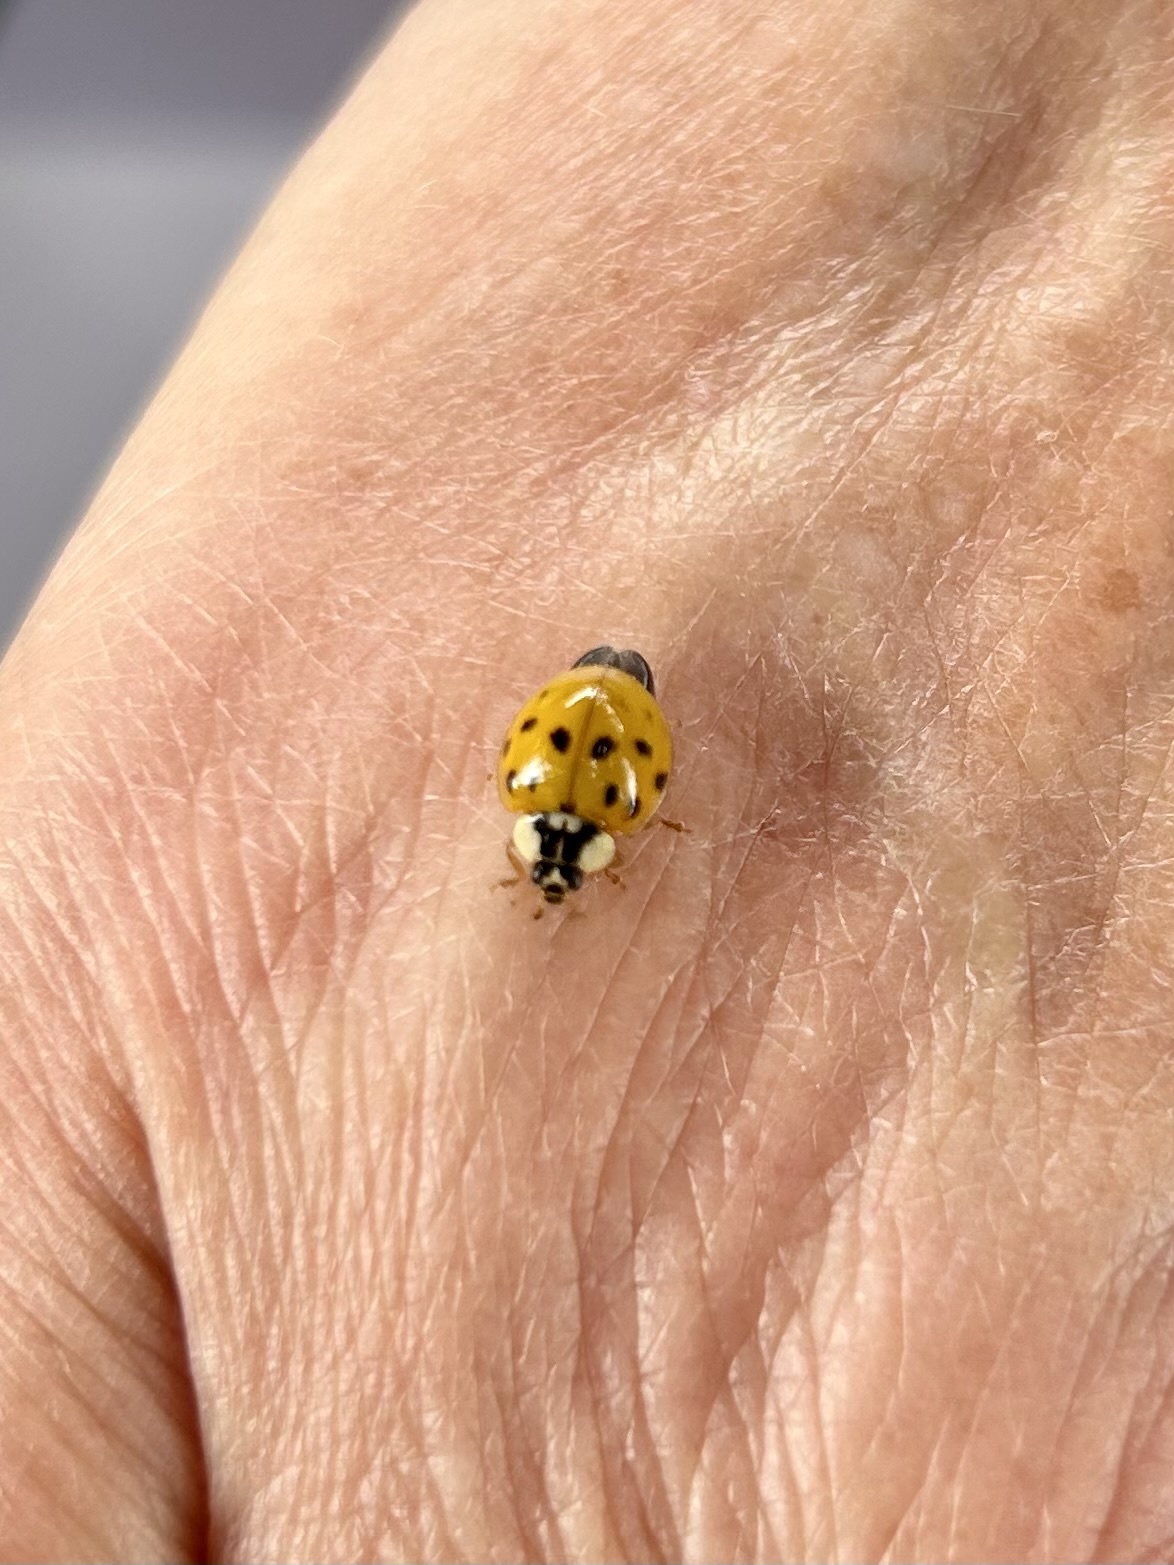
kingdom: Animalia
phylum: Arthropoda
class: Insecta
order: Coleoptera
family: Coccinellidae
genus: Harmonia
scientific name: Harmonia axyridis
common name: Harlequin ladybird
